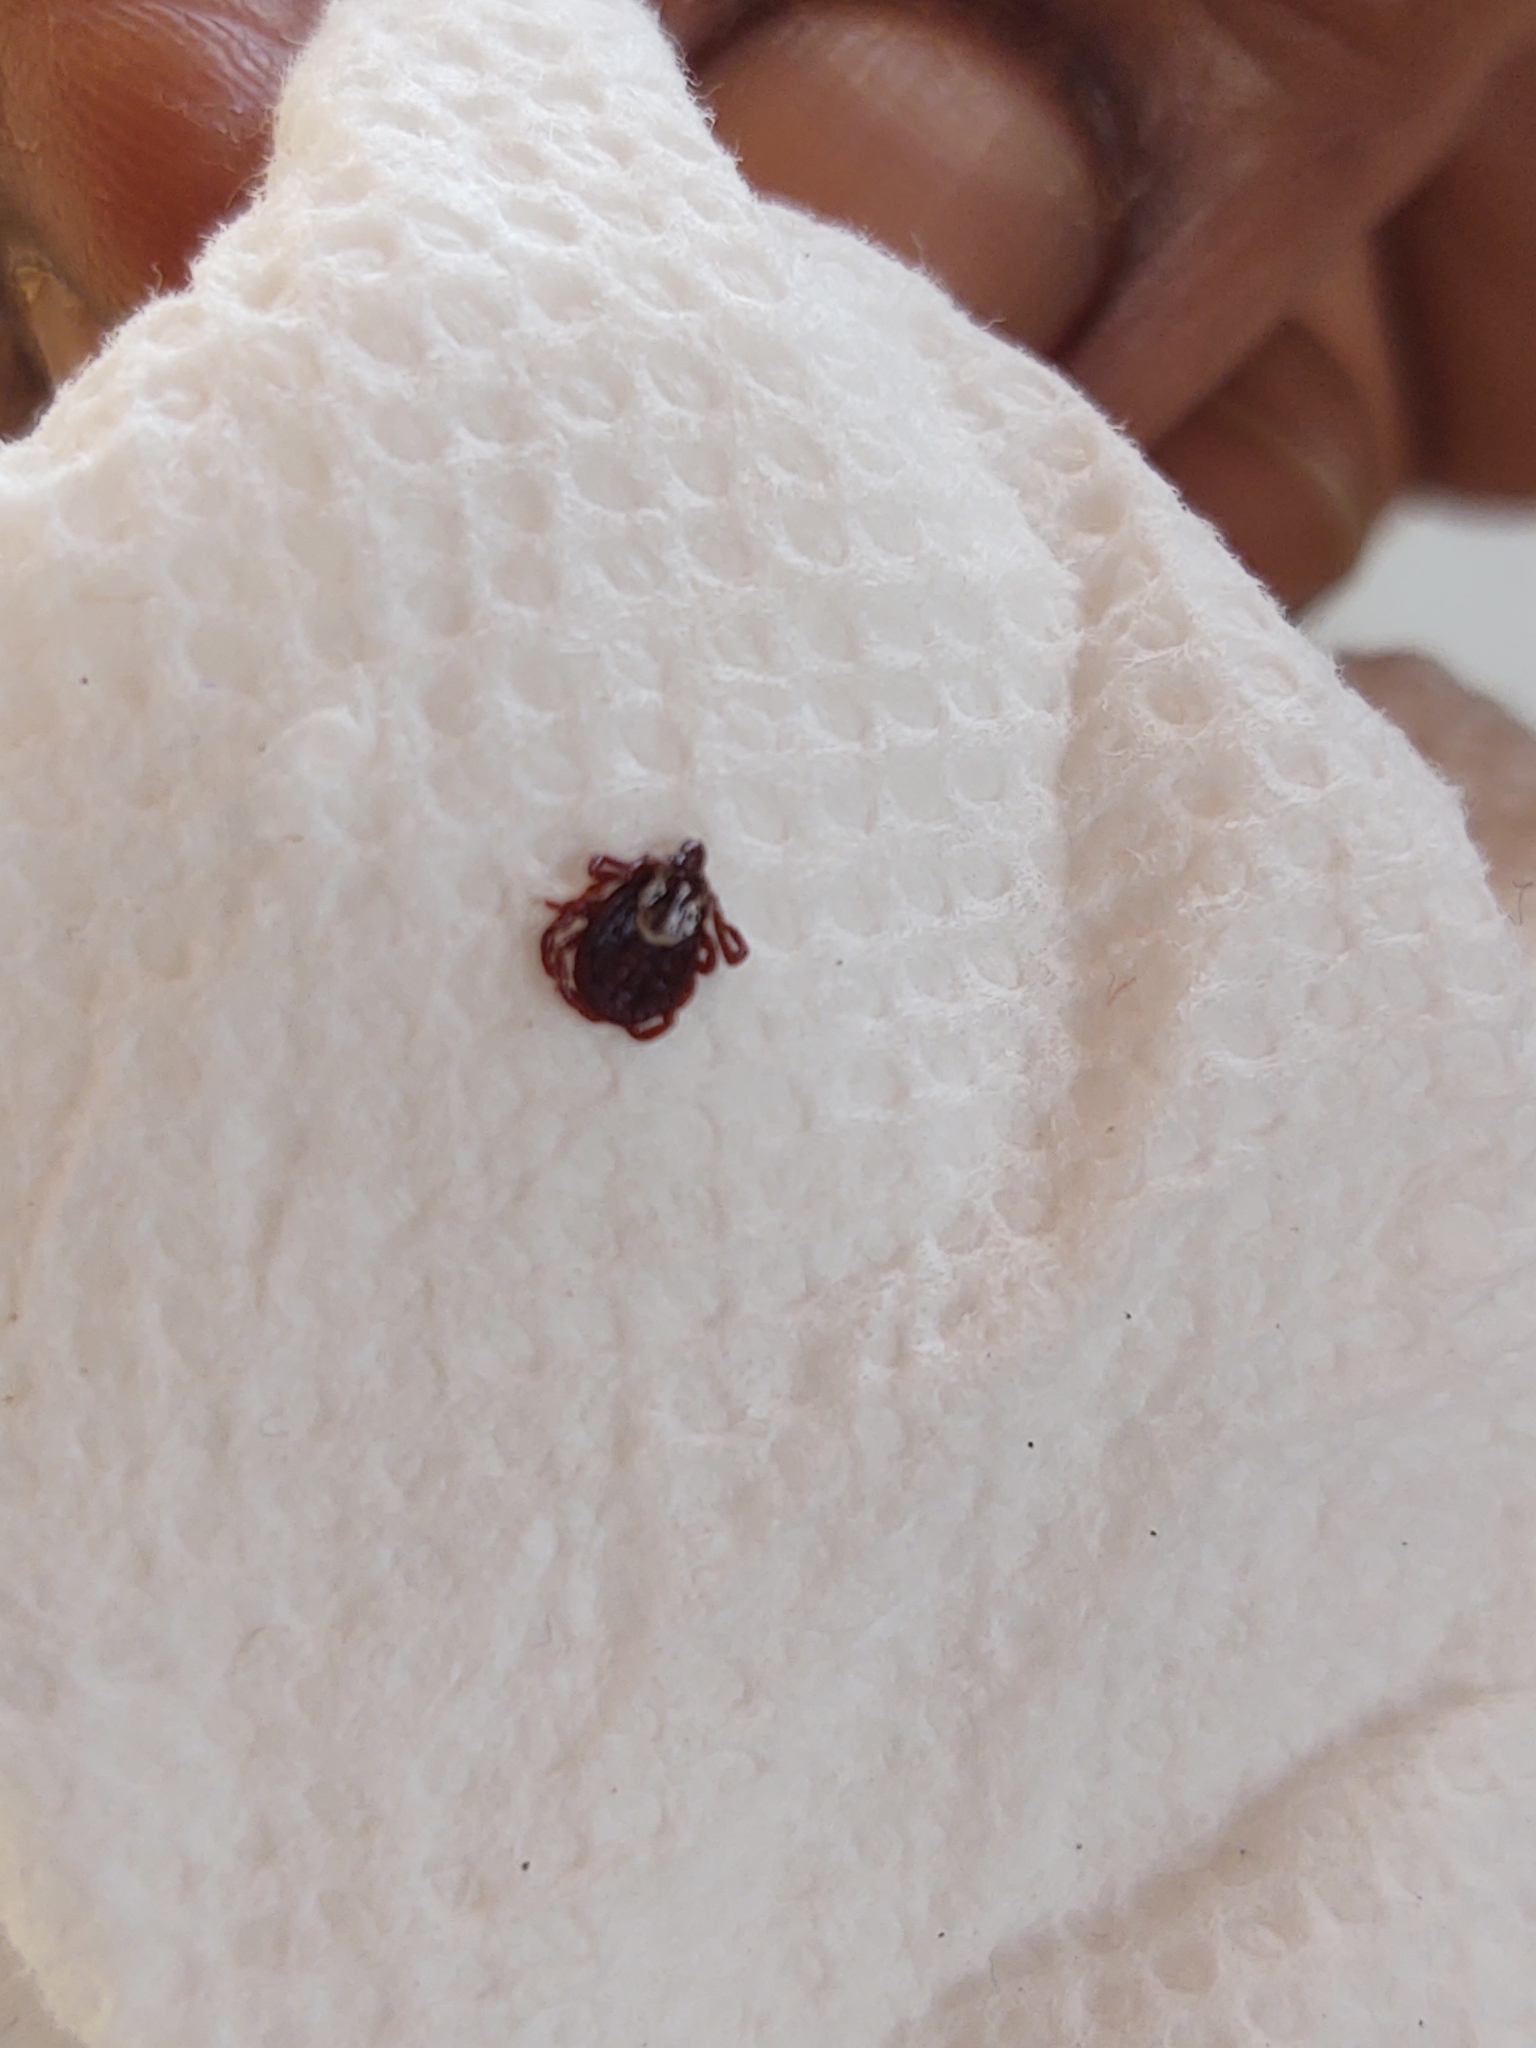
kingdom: Animalia
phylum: Arthropoda
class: Arachnida
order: Ixodida
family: Ixodidae
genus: Dermacentor
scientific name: Dermacentor variabilis
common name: American dog tick
